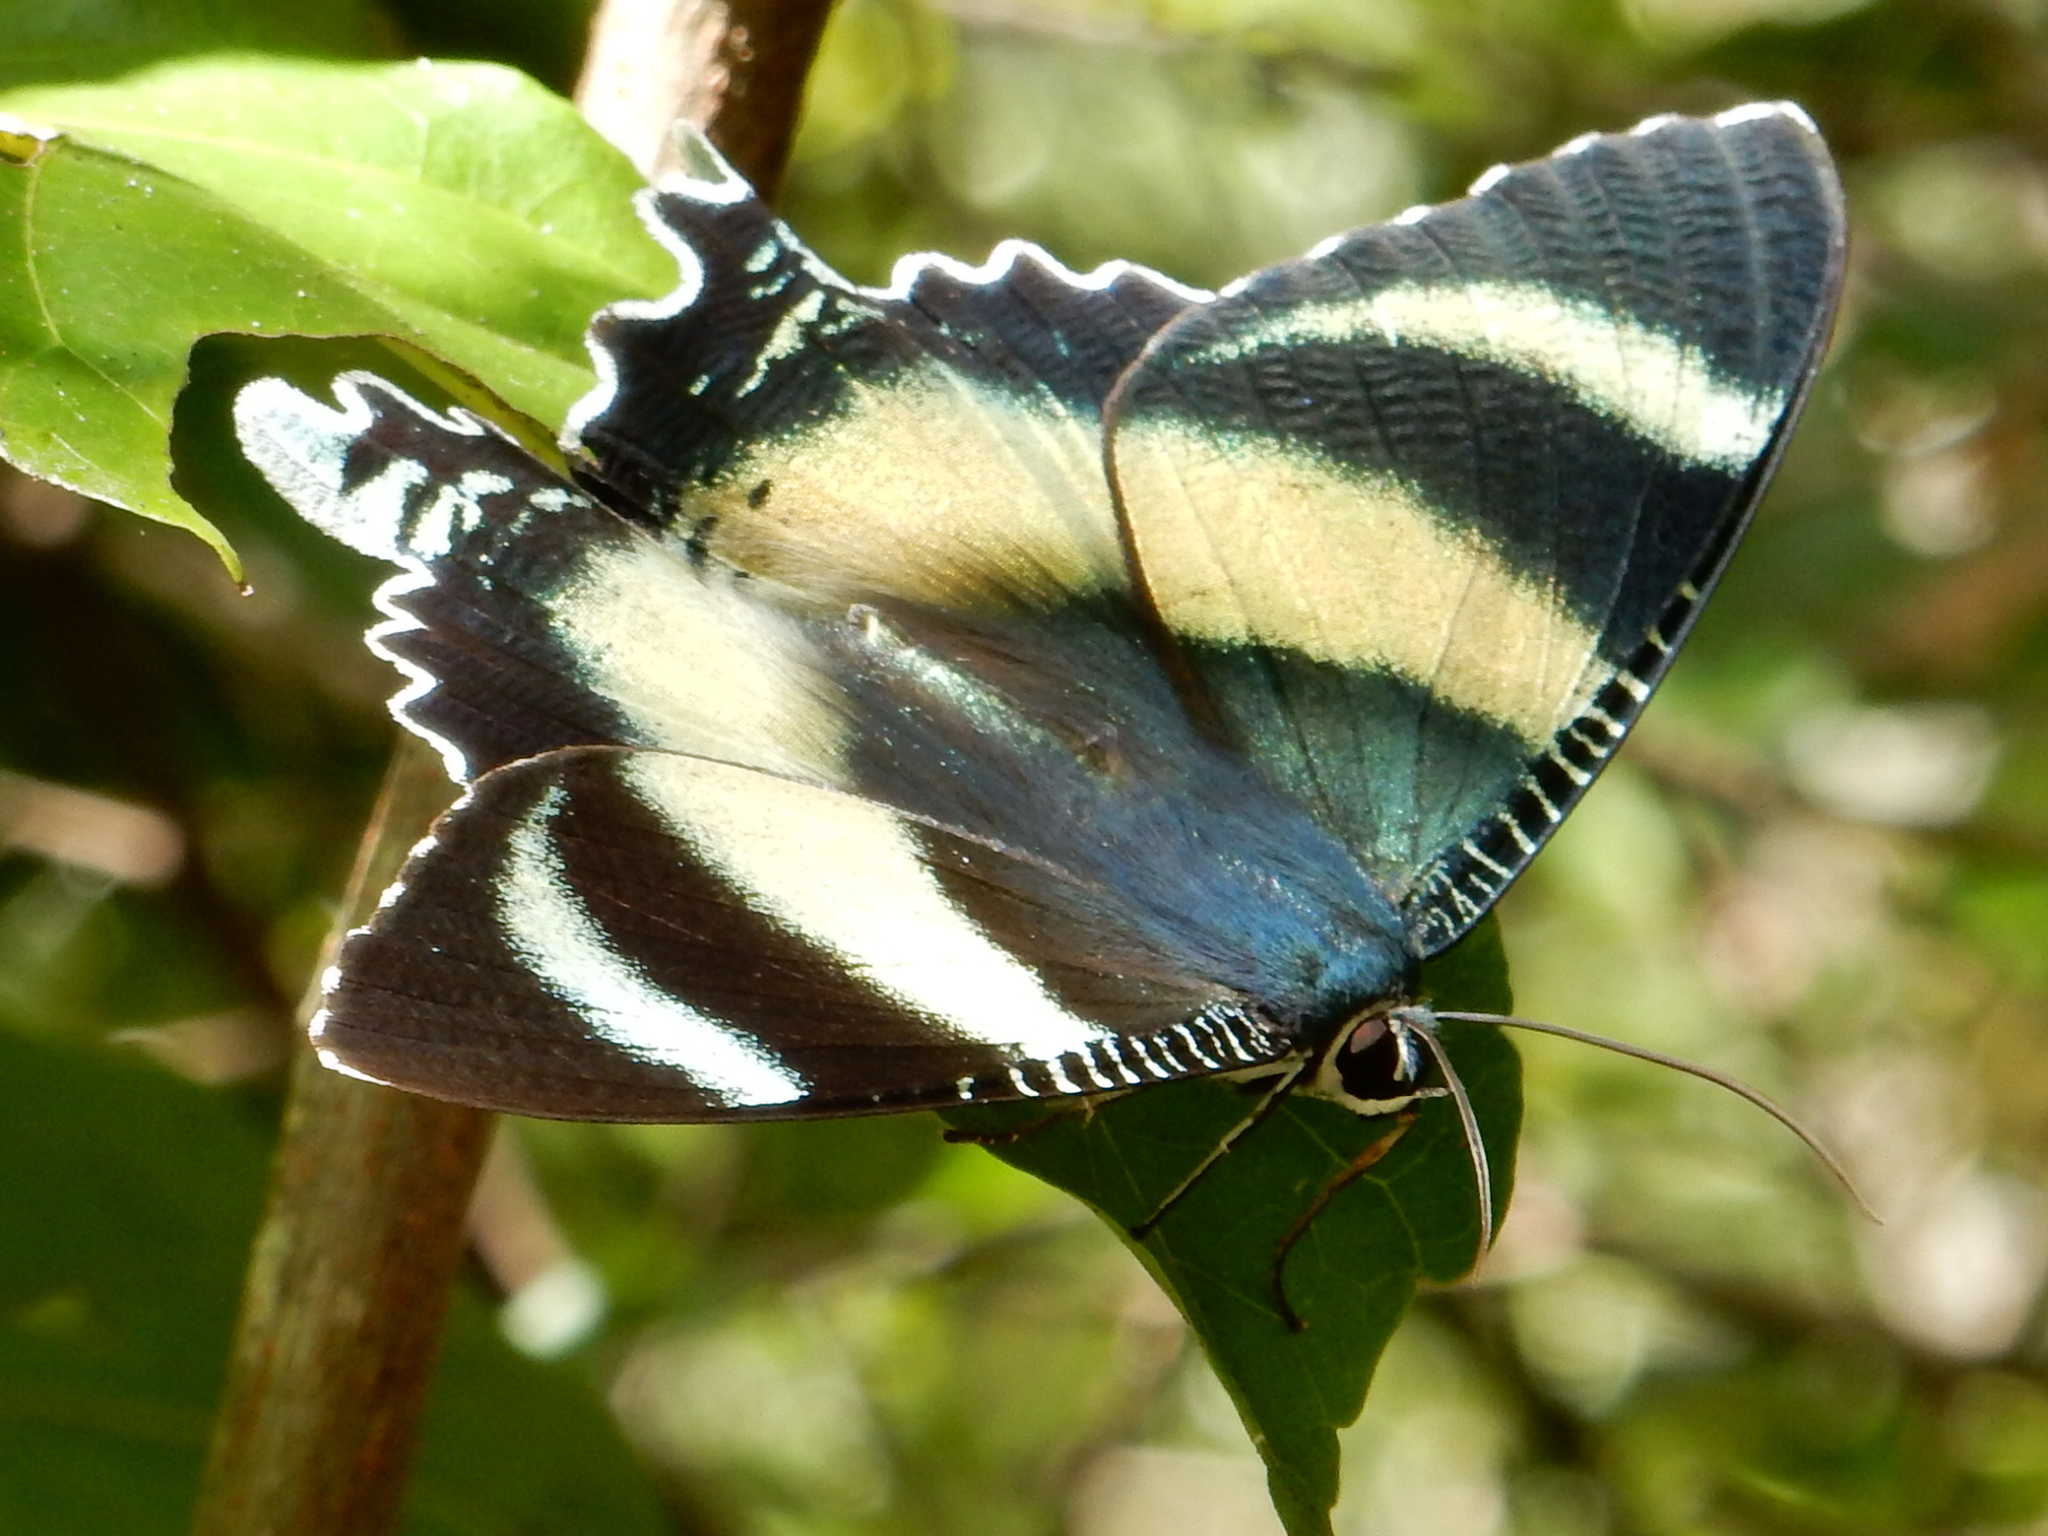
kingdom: Animalia
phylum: Arthropoda
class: Insecta
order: Lepidoptera
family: Uraniidae
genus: Alcides
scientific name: Alcides metaurus
